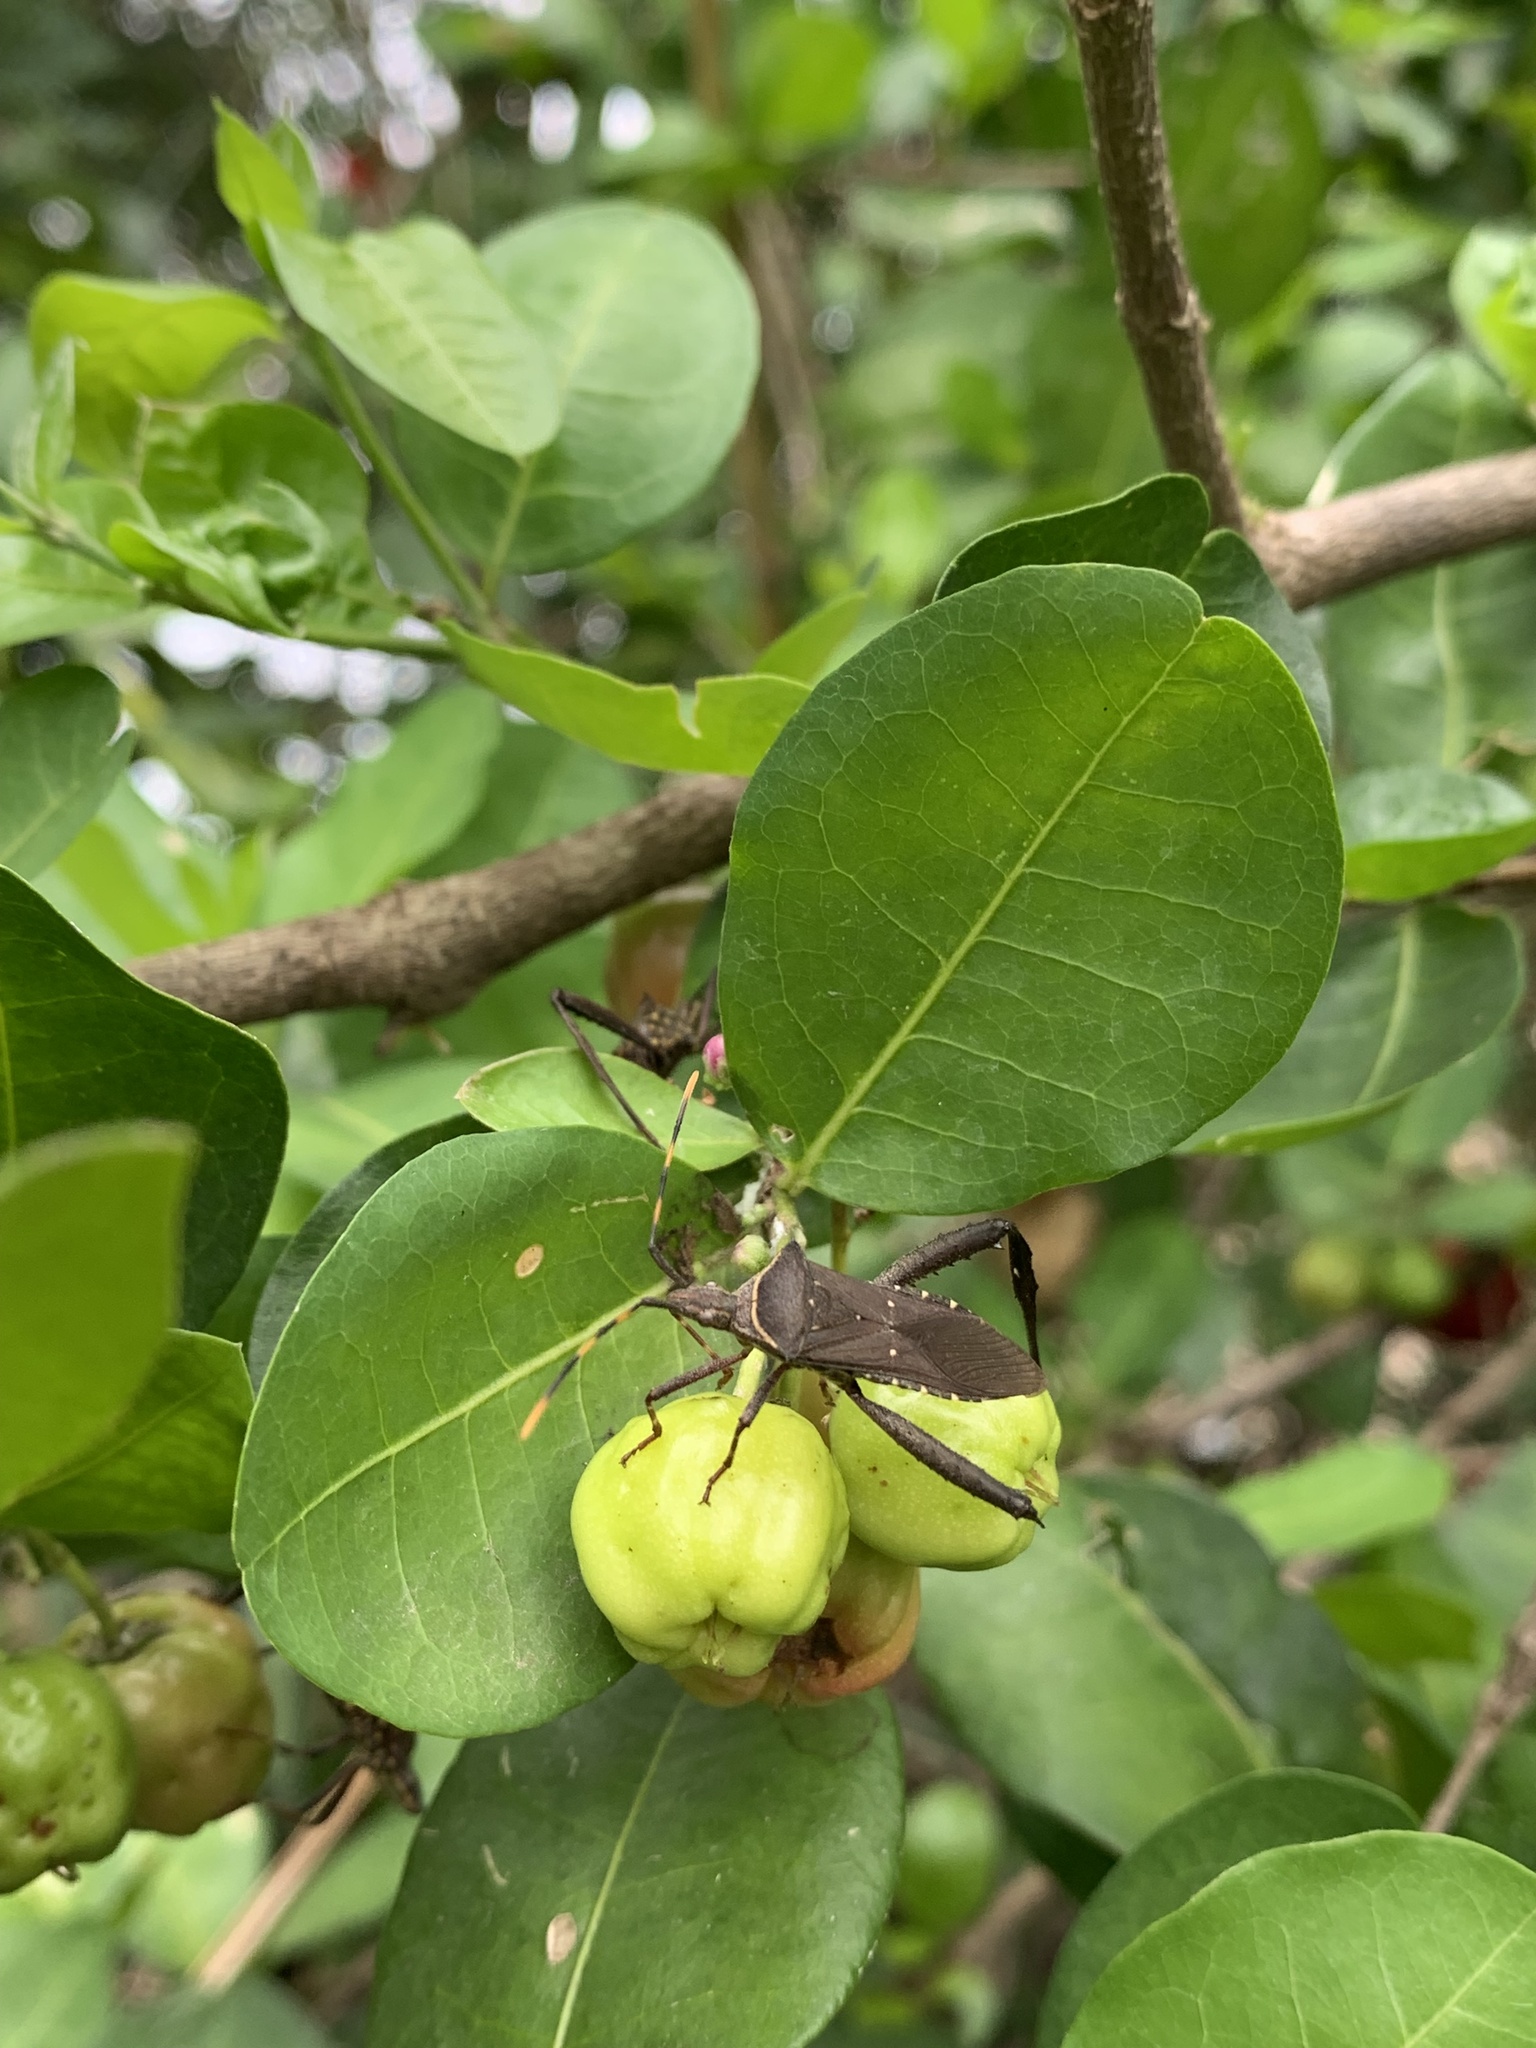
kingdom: Animalia
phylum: Arthropoda
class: Insecta
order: Hemiptera
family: Coreidae
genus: Leptoglossus
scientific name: Leptoglossus gonagra
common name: Citron bug
